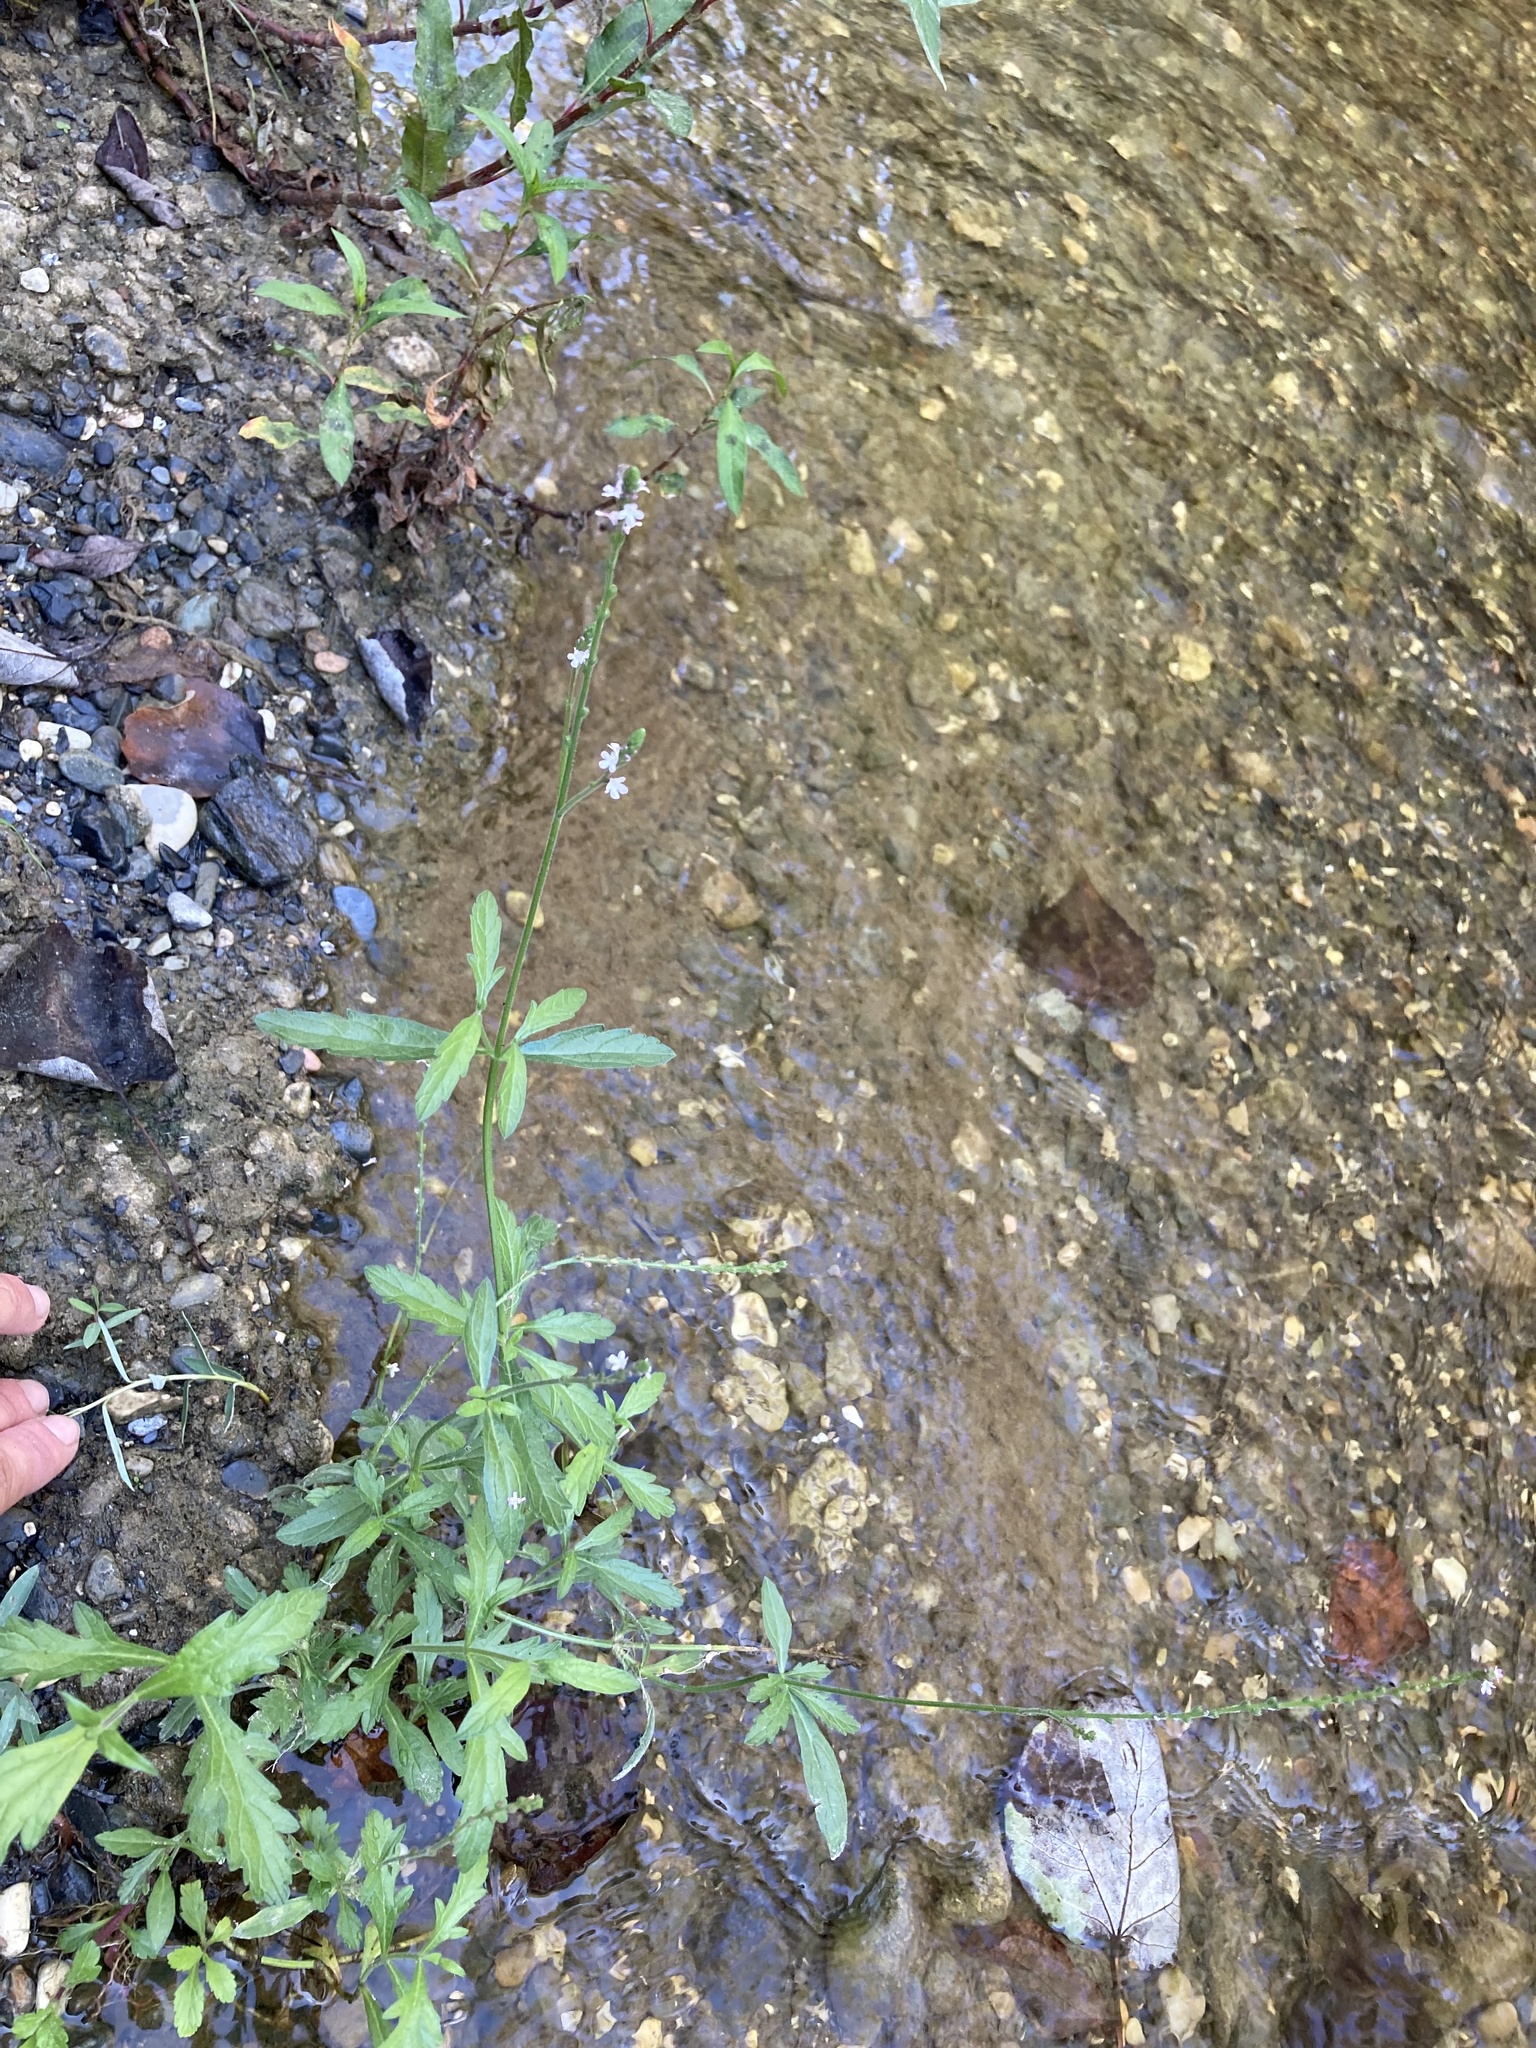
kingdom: Plantae
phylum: Tracheophyta
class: Magnoliopsida
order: Lamiales
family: Verbenaceae
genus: Verbena
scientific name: Verbena officinalis
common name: Vervain
